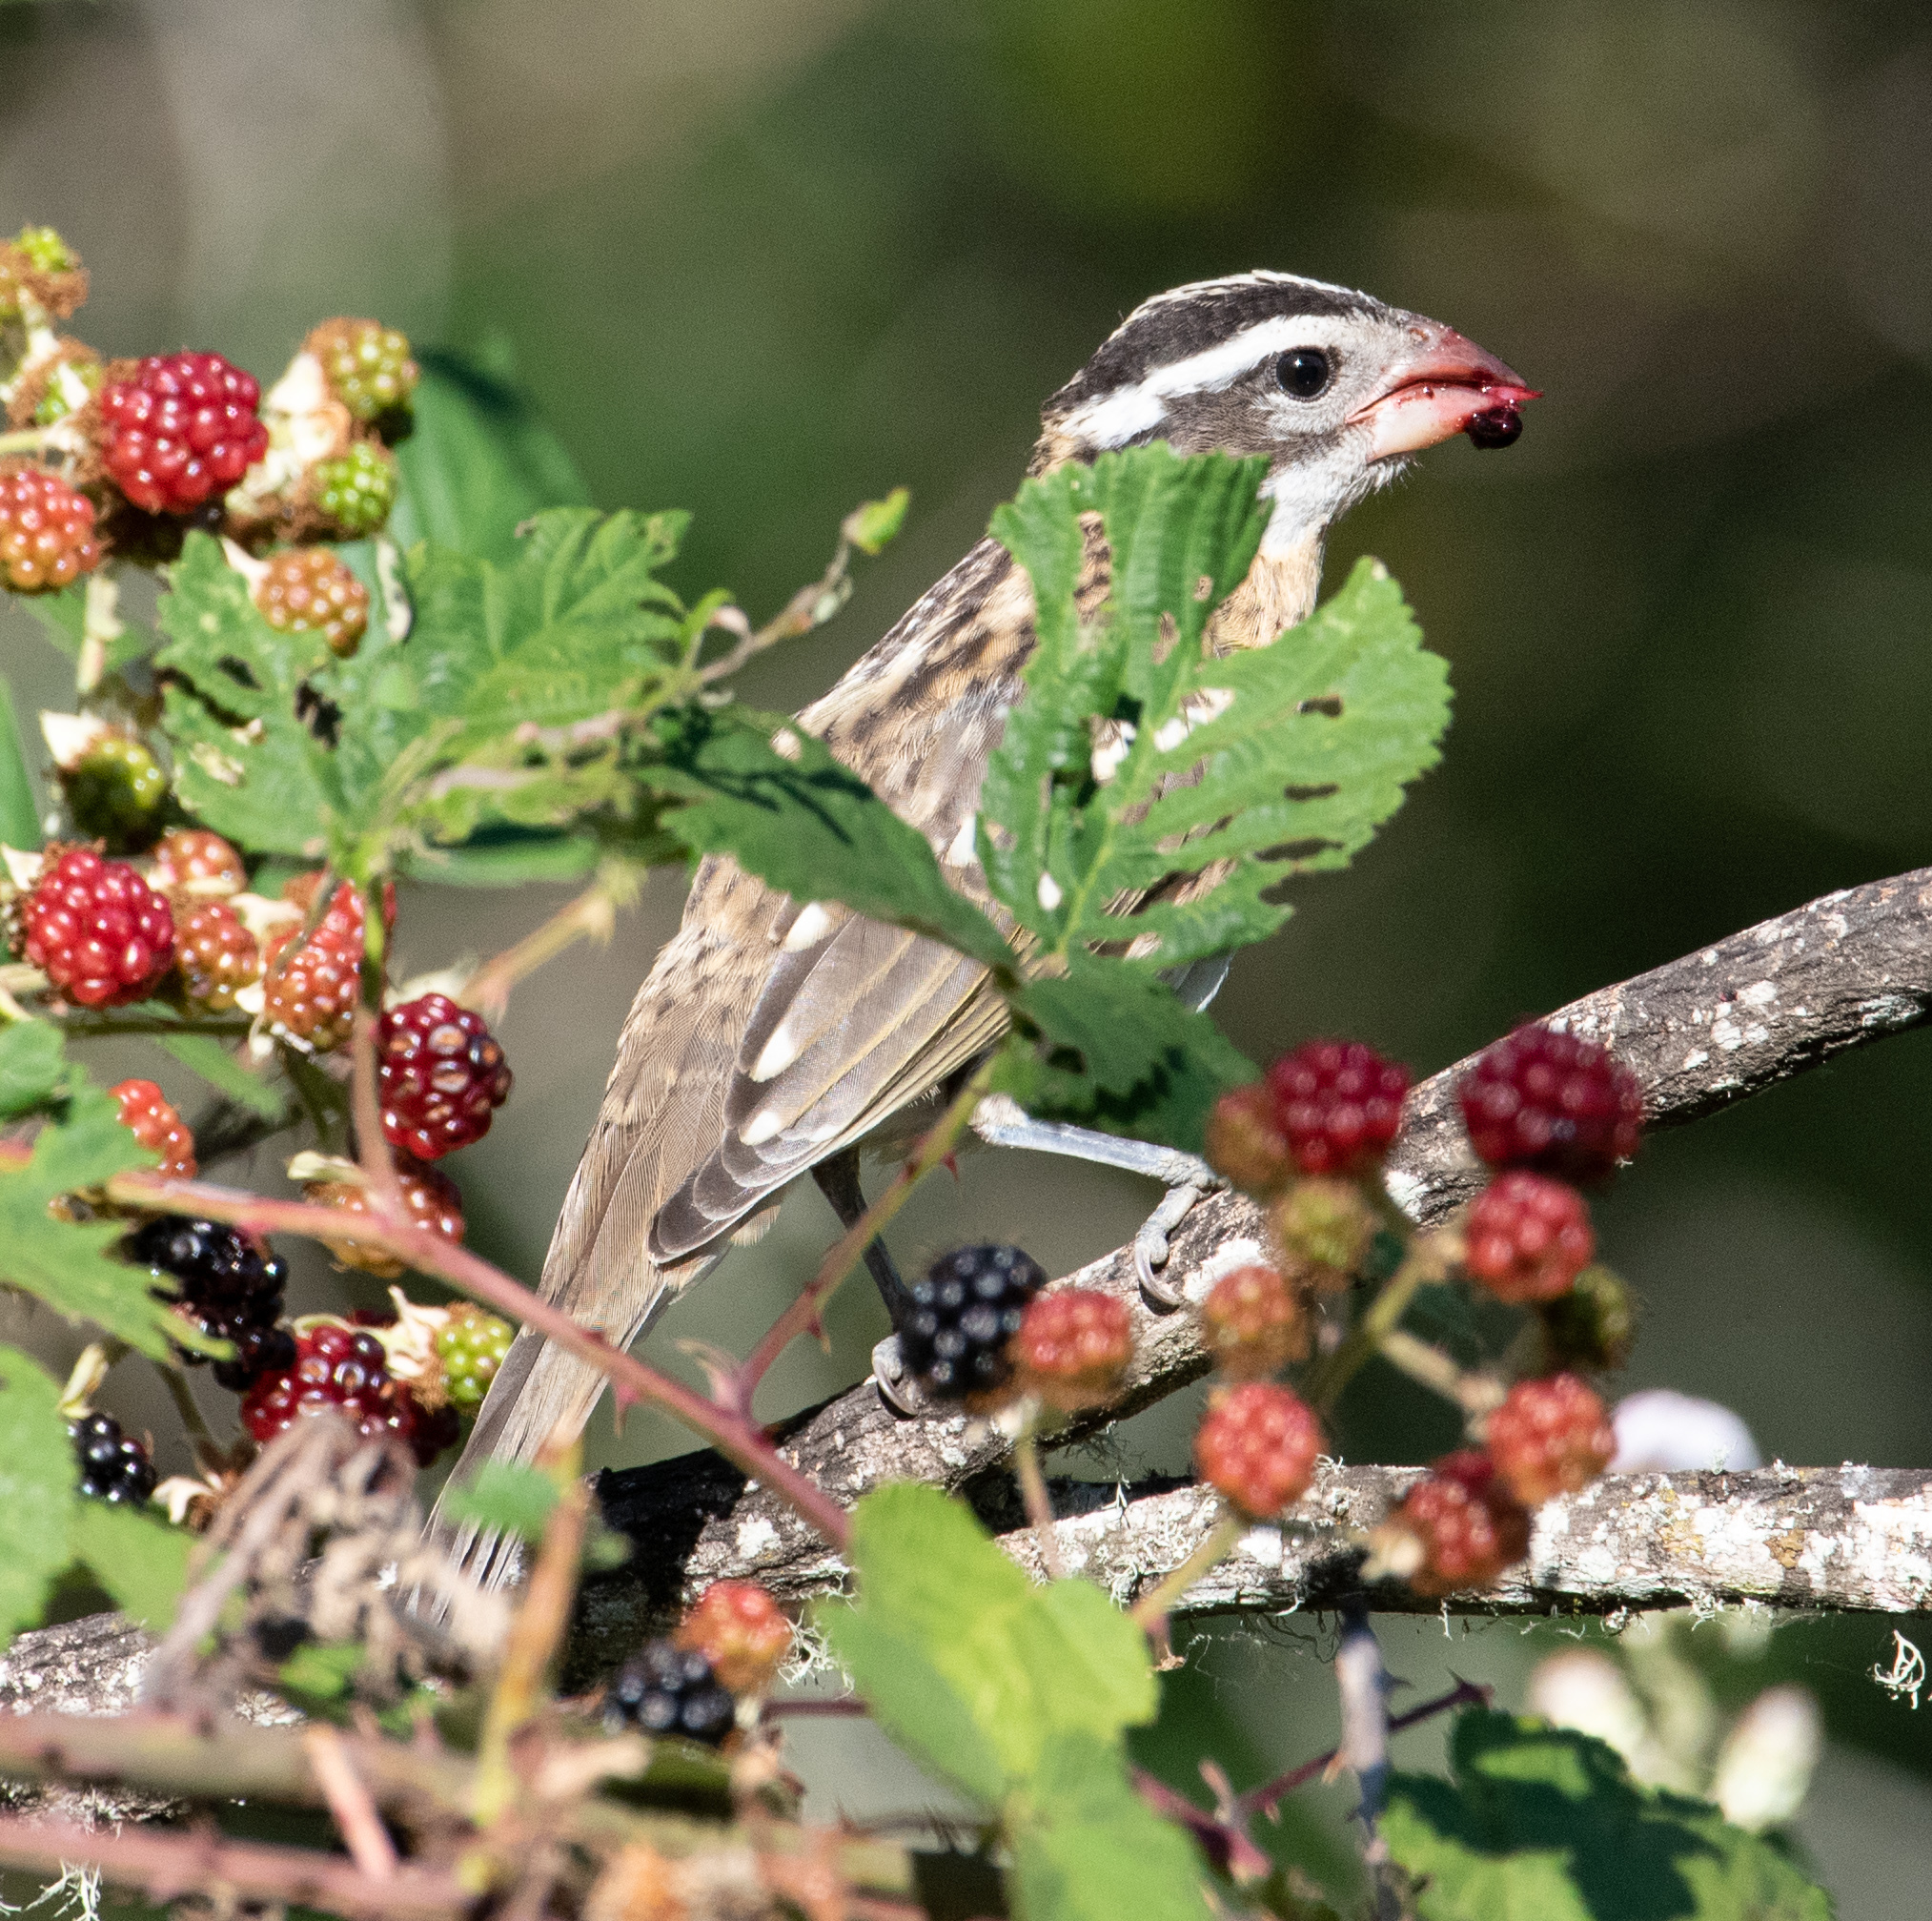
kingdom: Animalia
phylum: Chordata
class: Aves
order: Passeriformes
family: Cardinalidae
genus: Pheucticus
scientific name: Pheucticus melanocephalus
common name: Black-headed grosbeak
